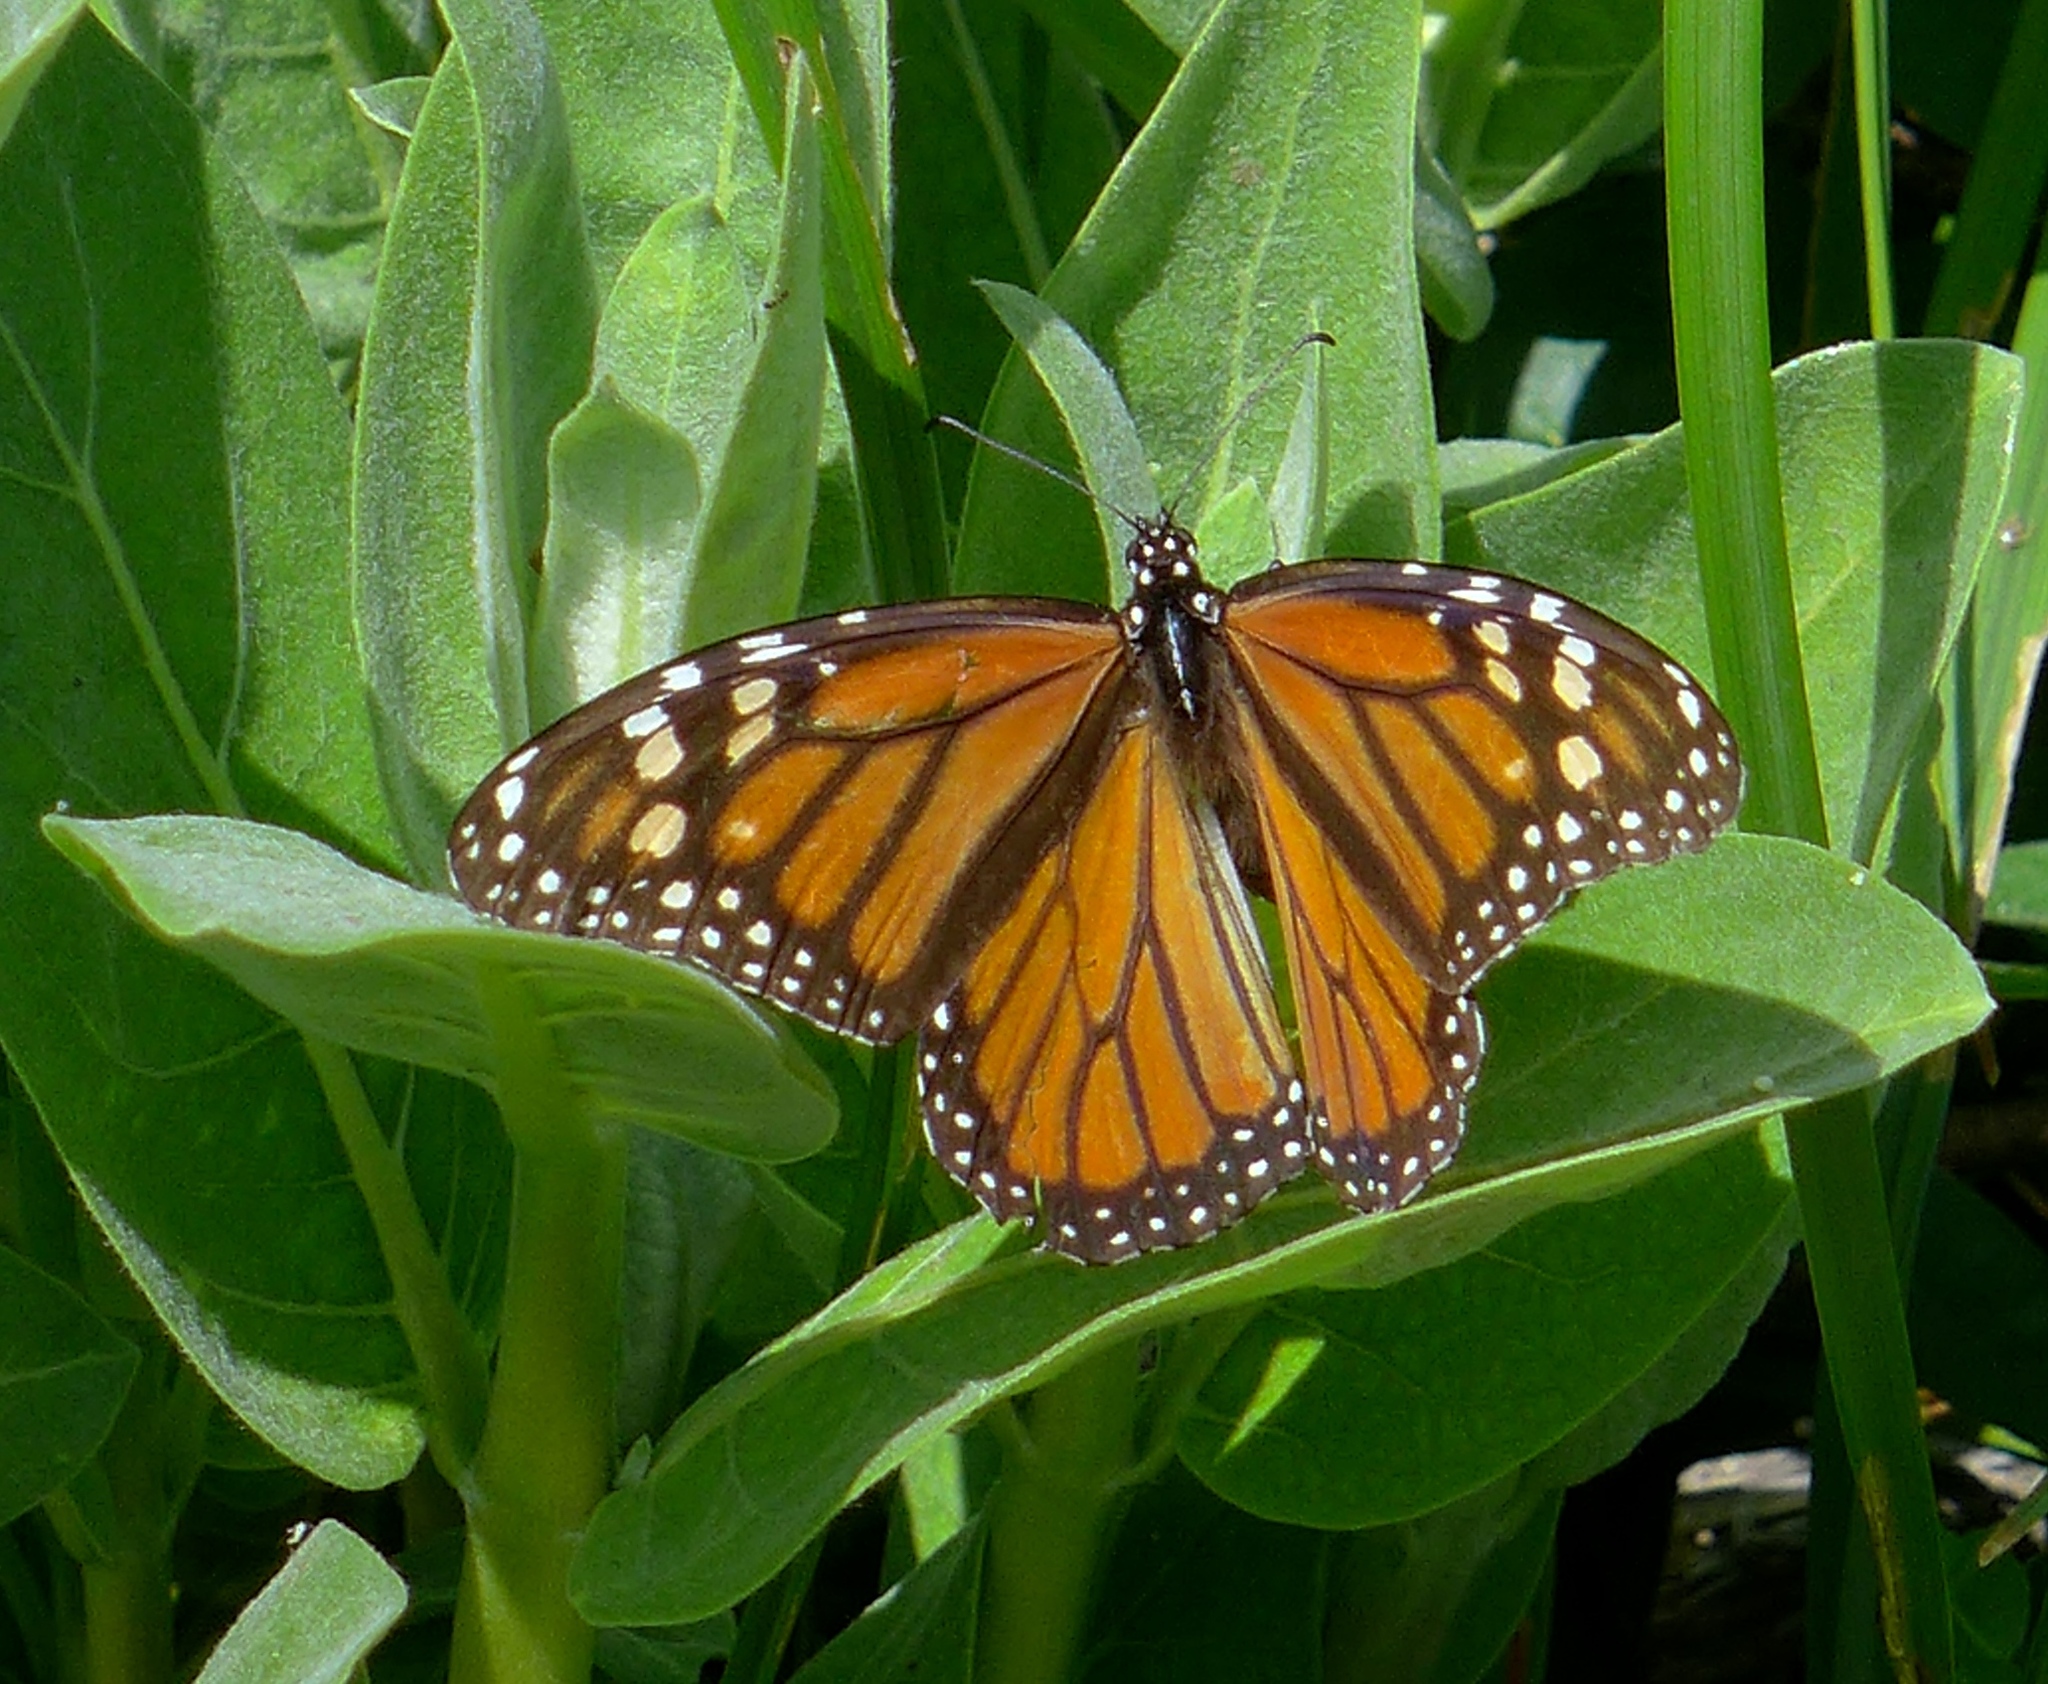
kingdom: Animalia
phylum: Arthropoda
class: Insecta
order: Lepidoptera
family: Nymphalidae
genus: Danaus
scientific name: Danaus plexippus
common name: Monarch
